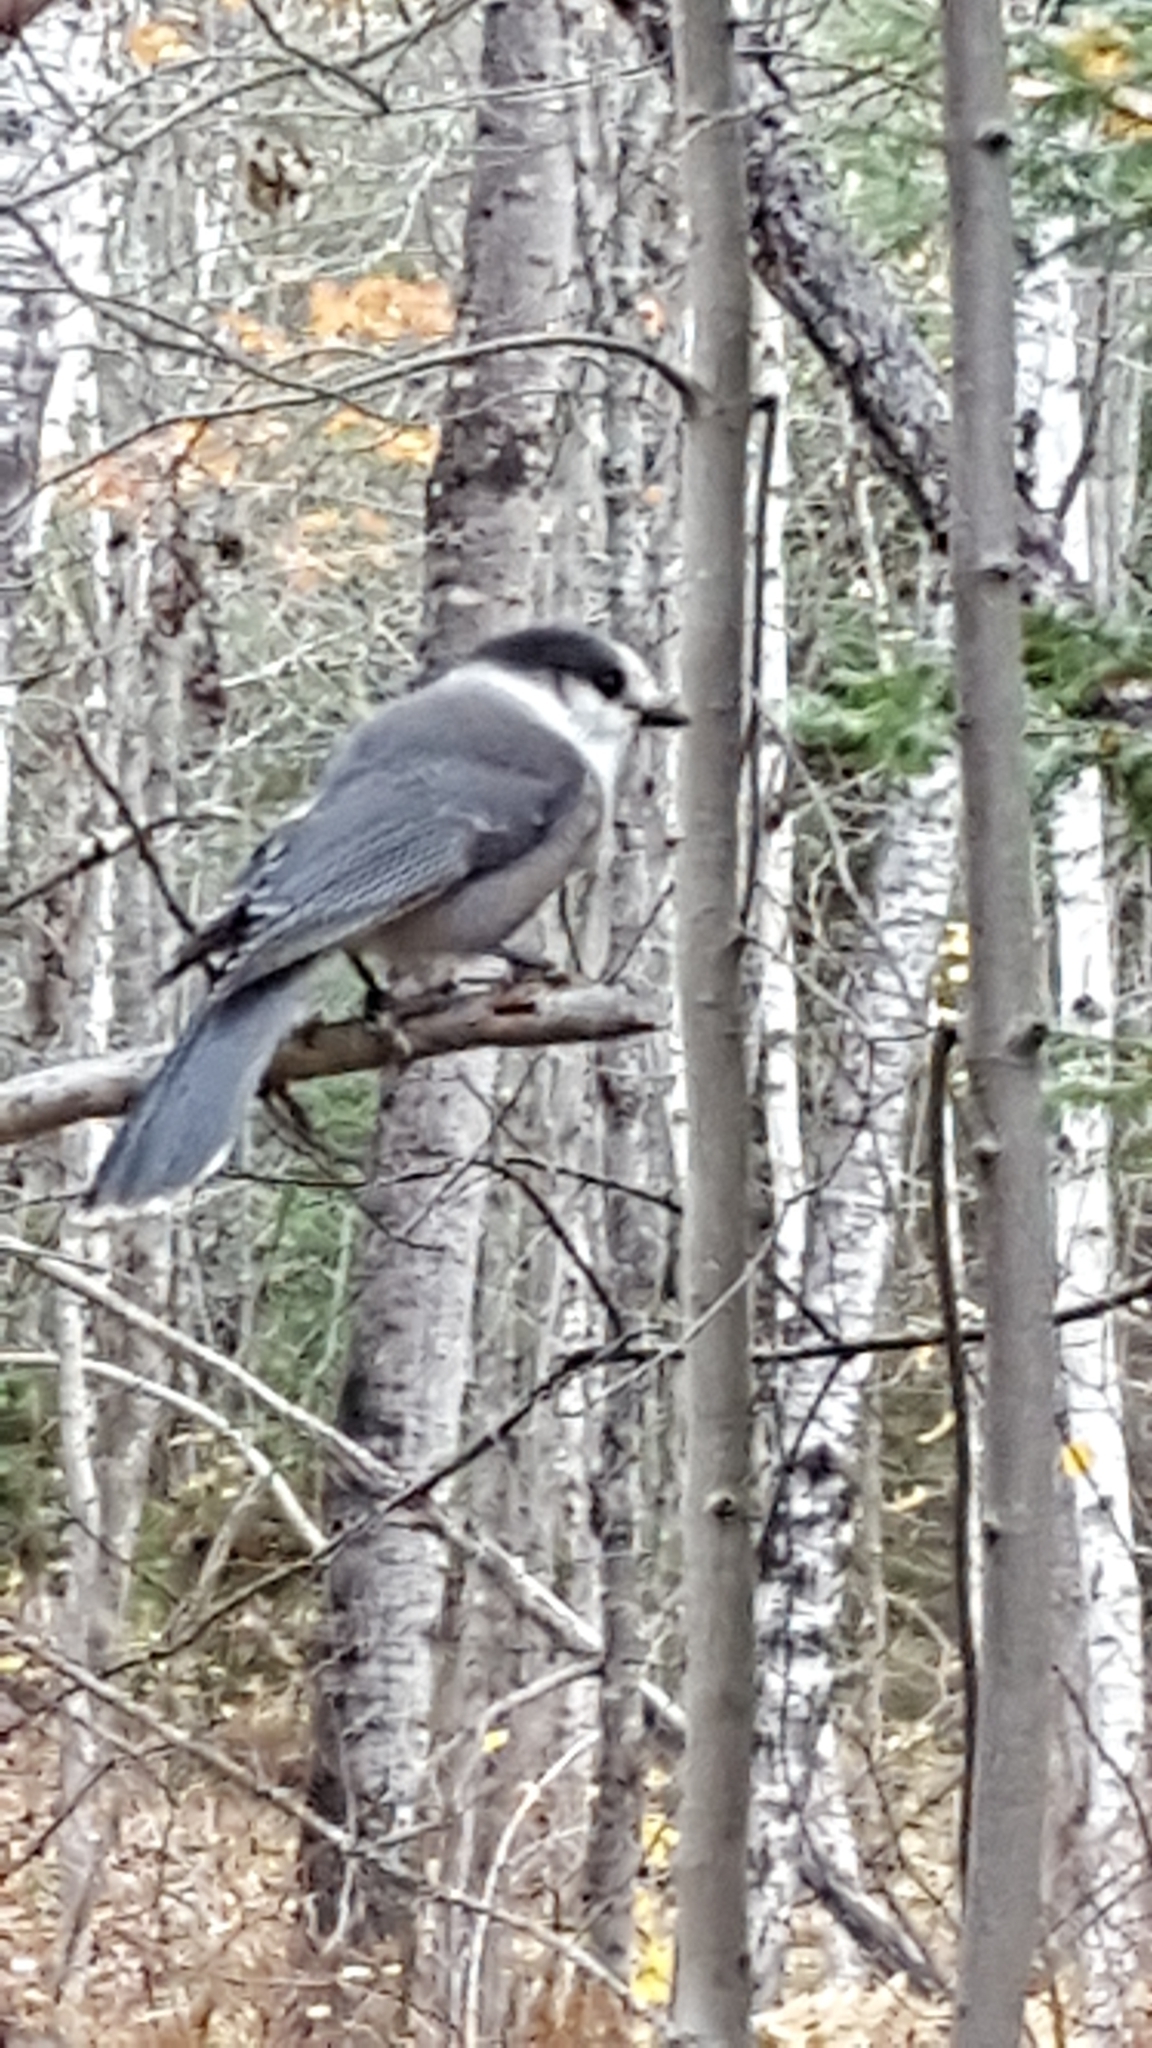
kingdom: Animalia
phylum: Chordata
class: Aves
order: Passeriformes
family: Corvidae
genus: Perisoreus
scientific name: Perisoreus canadensis
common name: Gray jay
